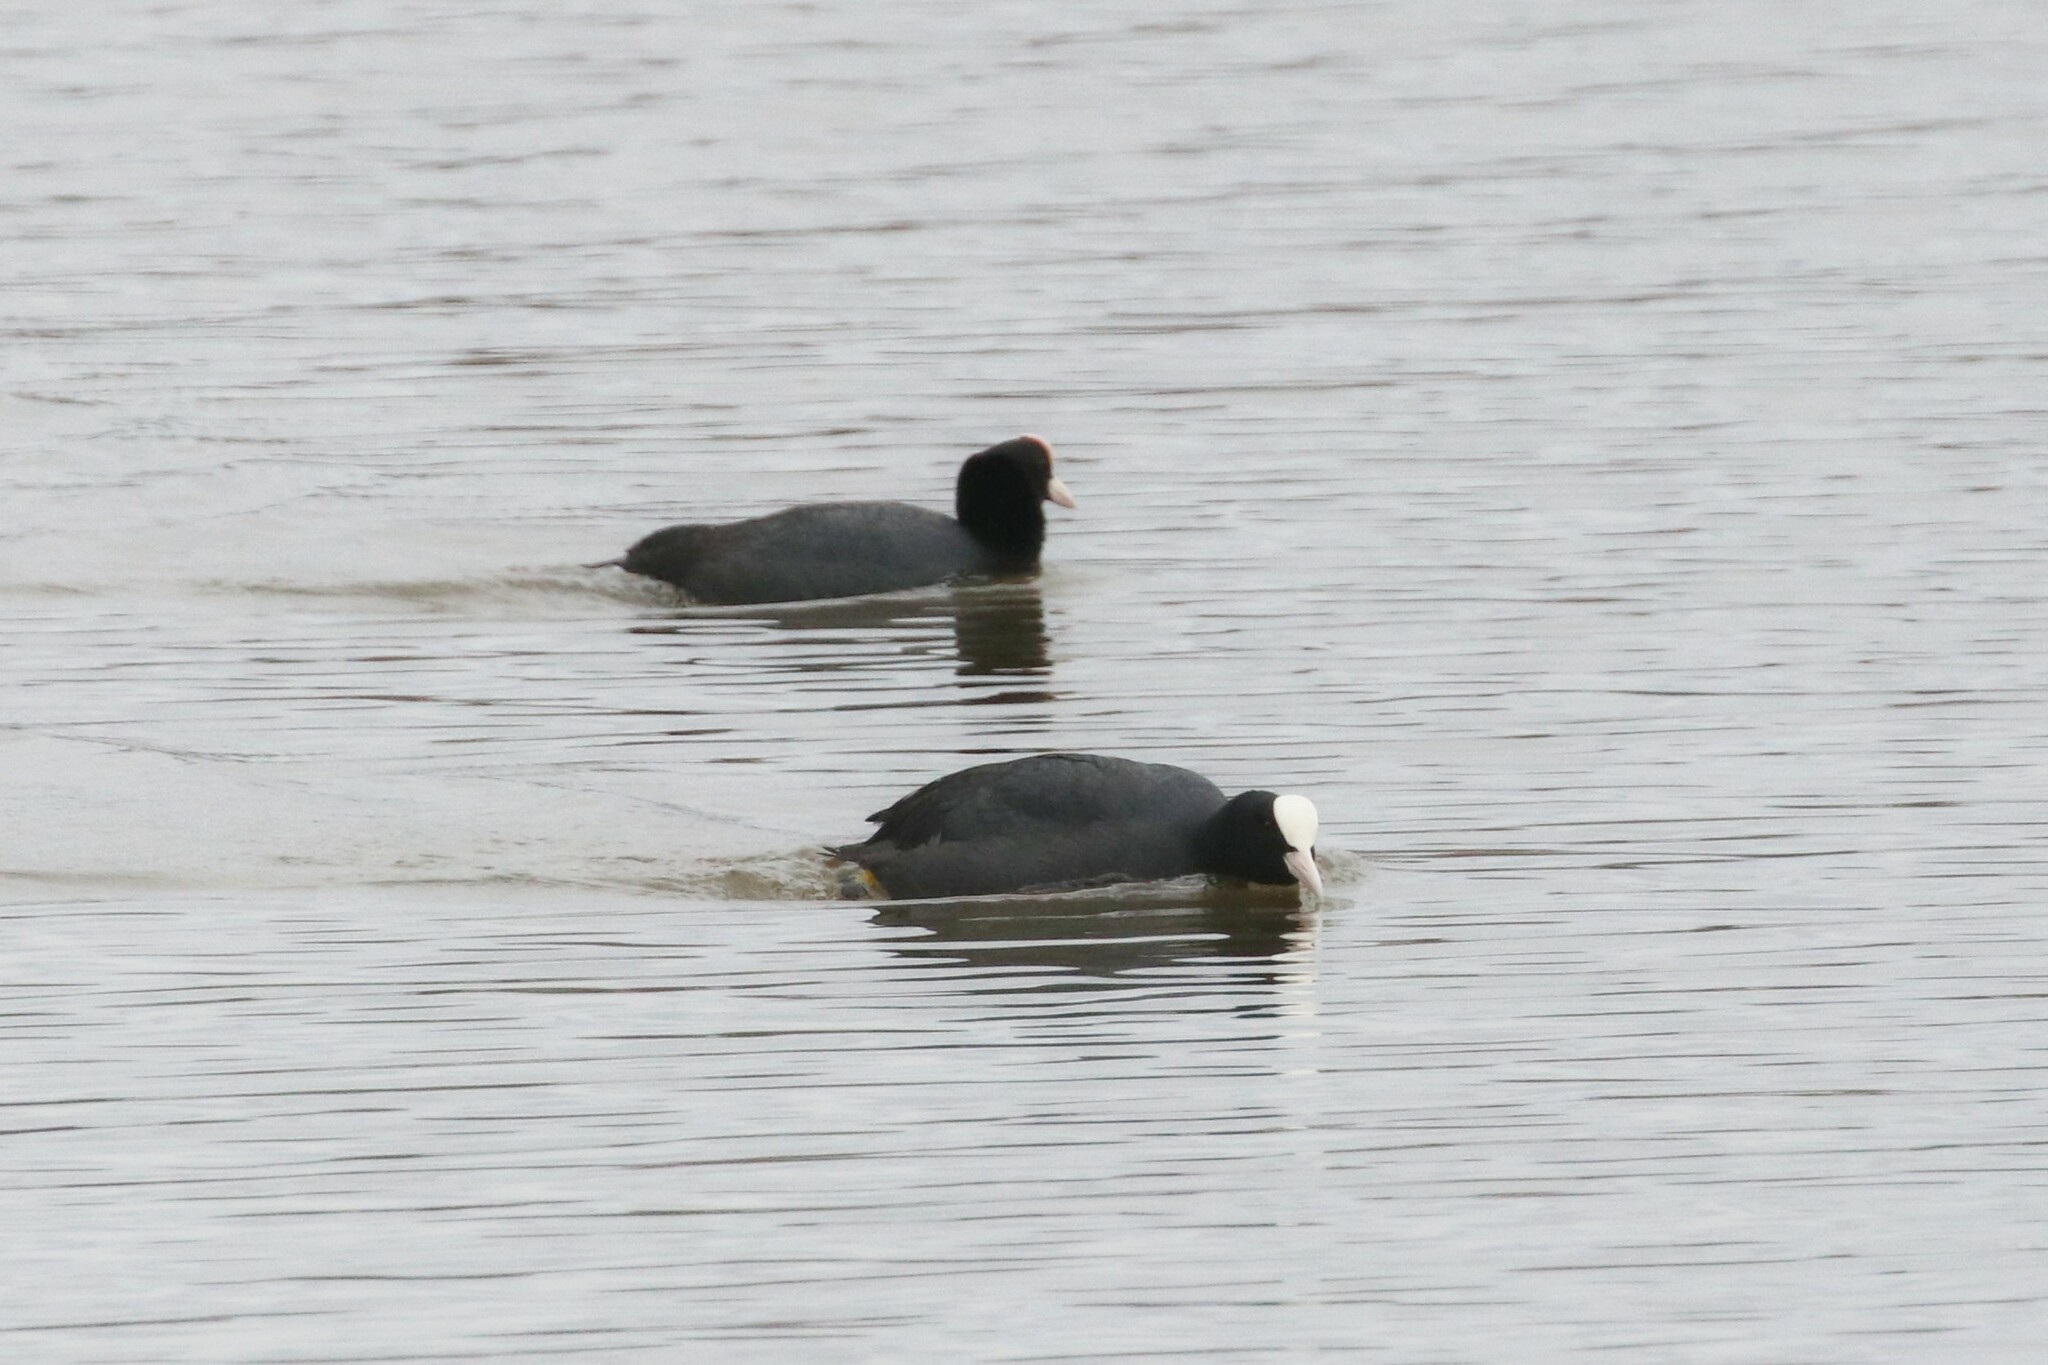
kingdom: Animalia
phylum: Chordata
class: Aves
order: Gruiformes
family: Rallidae
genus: Fulica
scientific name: Fulica atra
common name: Eurasian coot
